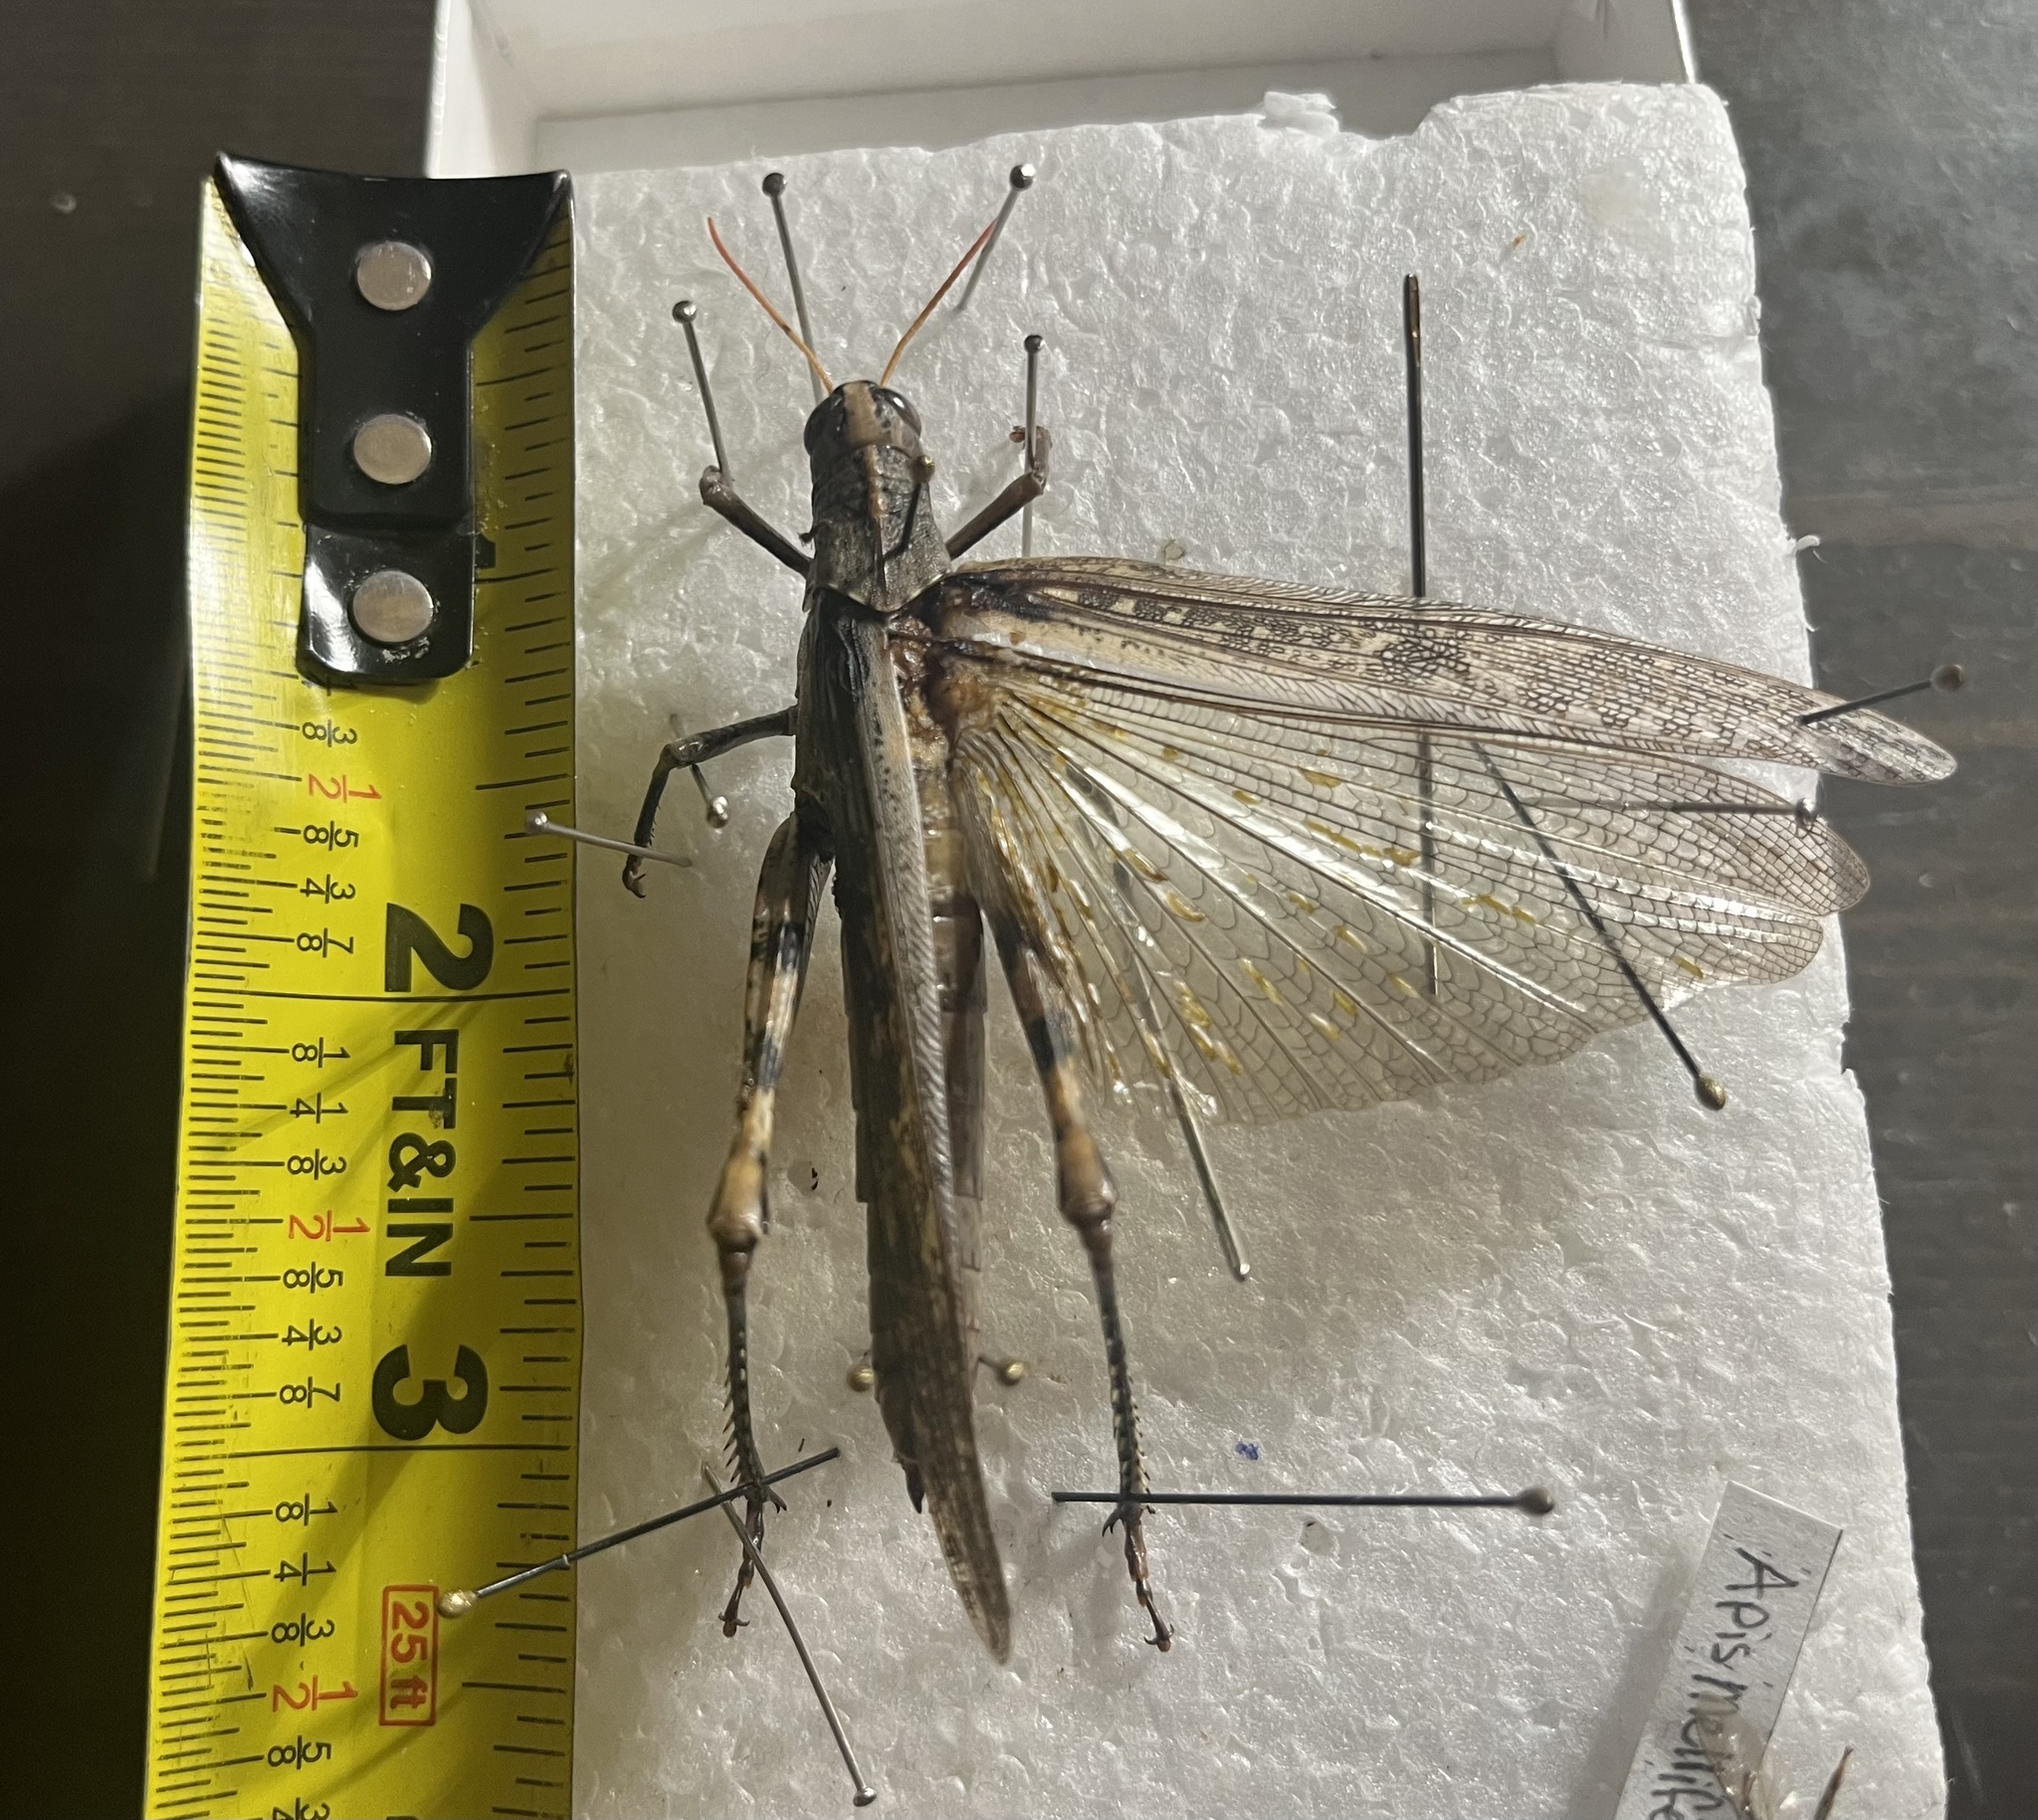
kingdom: Animalia
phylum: Arthropoda
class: Insecta
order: Orthoptera
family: Acrididae
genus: Schistocerca
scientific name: Schistocerca nitens
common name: Vagrant grasshopper
